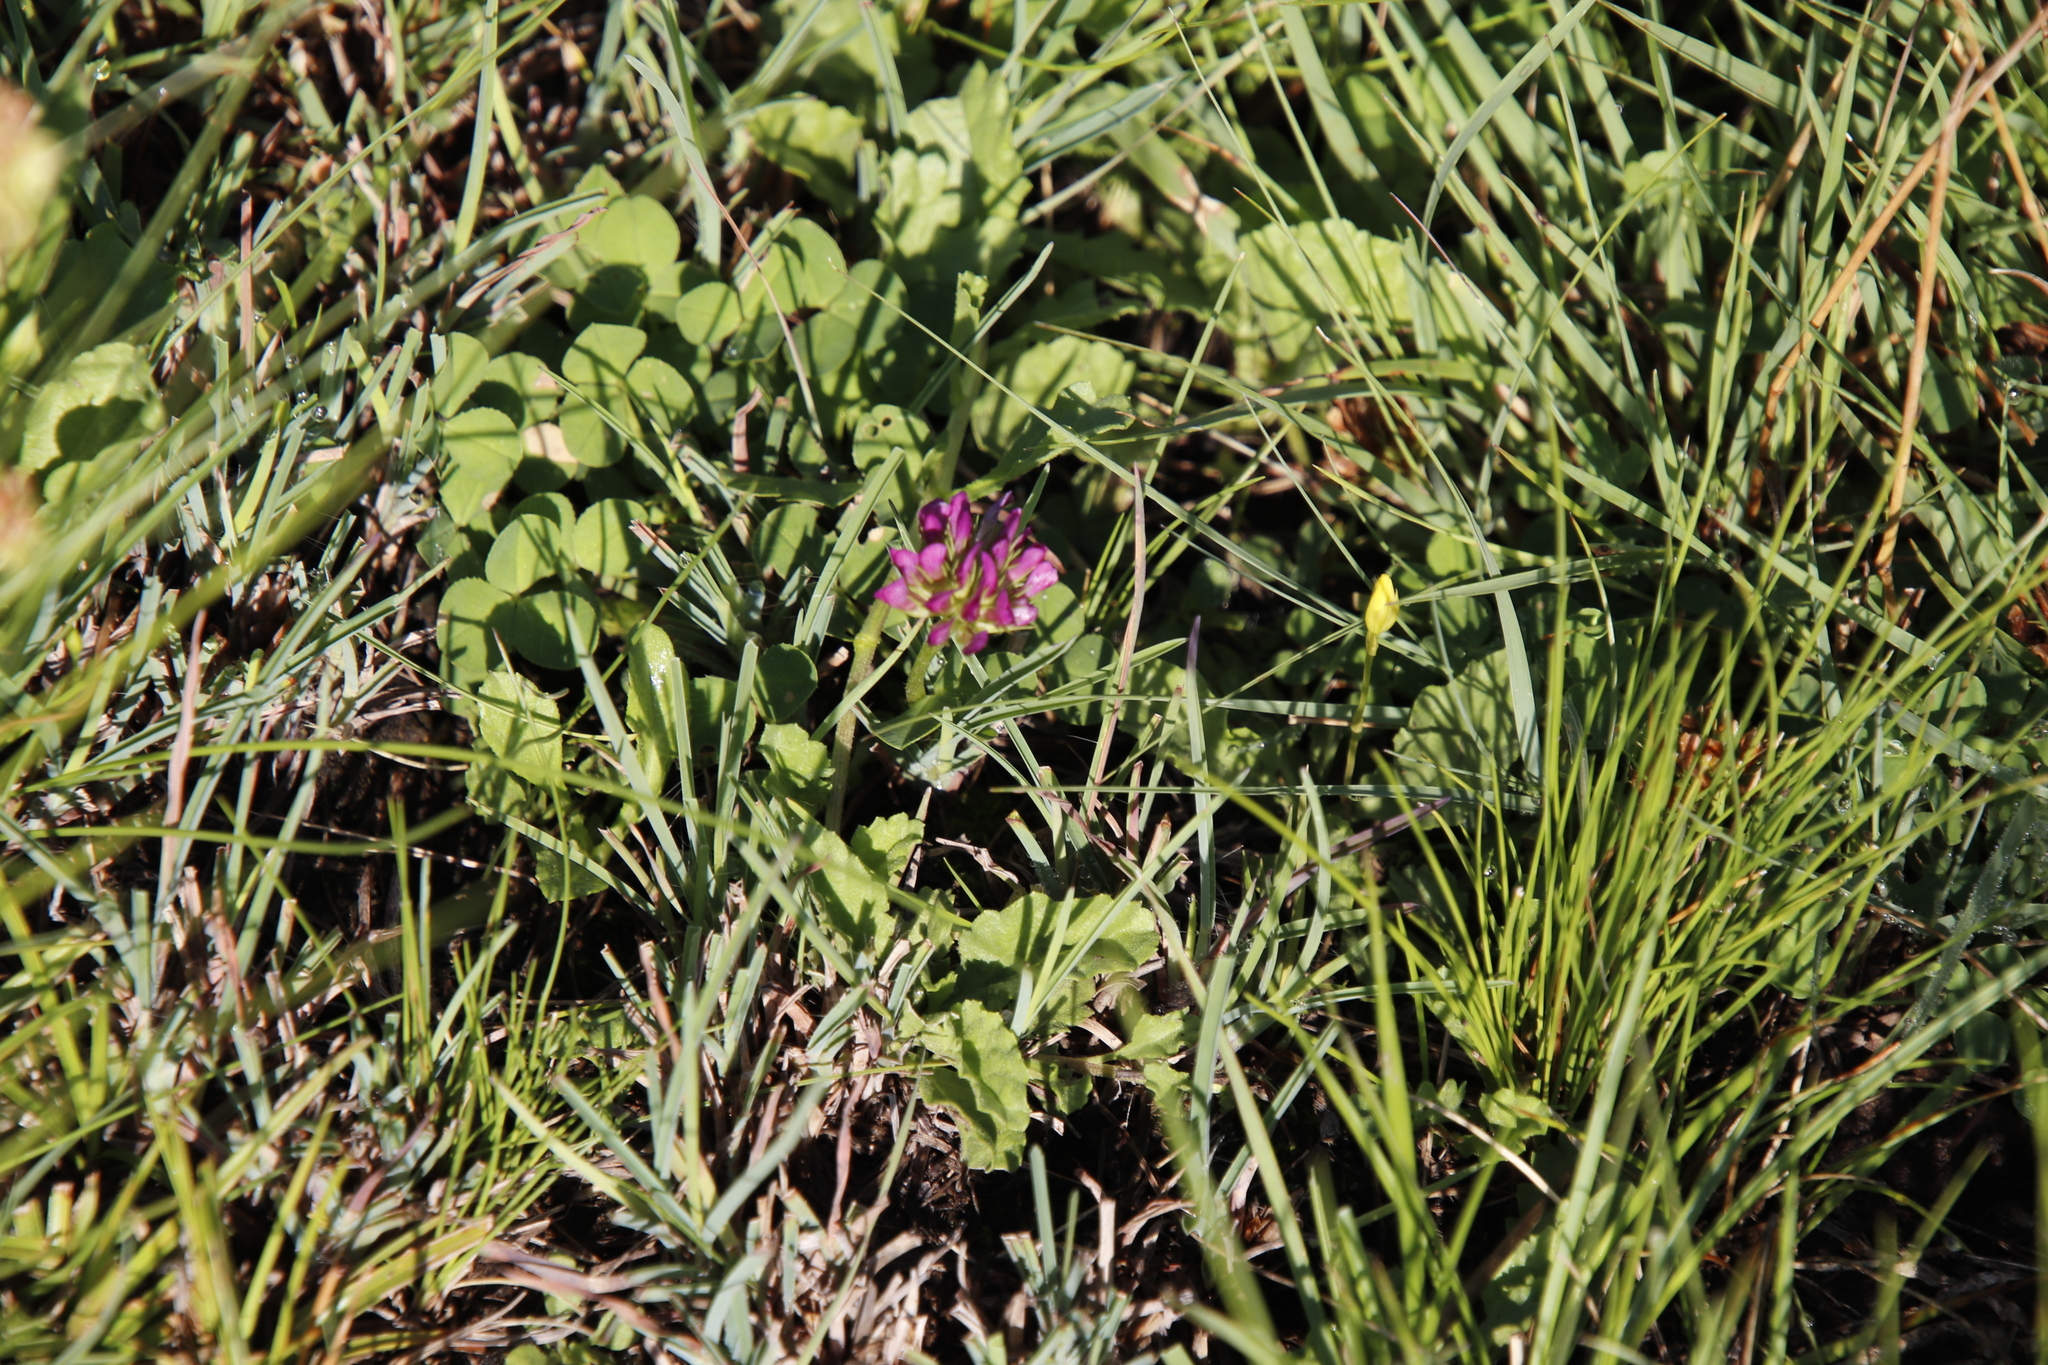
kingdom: Plantae
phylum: Tracheophyta
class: Magnoliopsida
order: Fabales
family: Fabaceae
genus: Trifolium
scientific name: Trifolium burchellianum
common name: Burchell's clover
